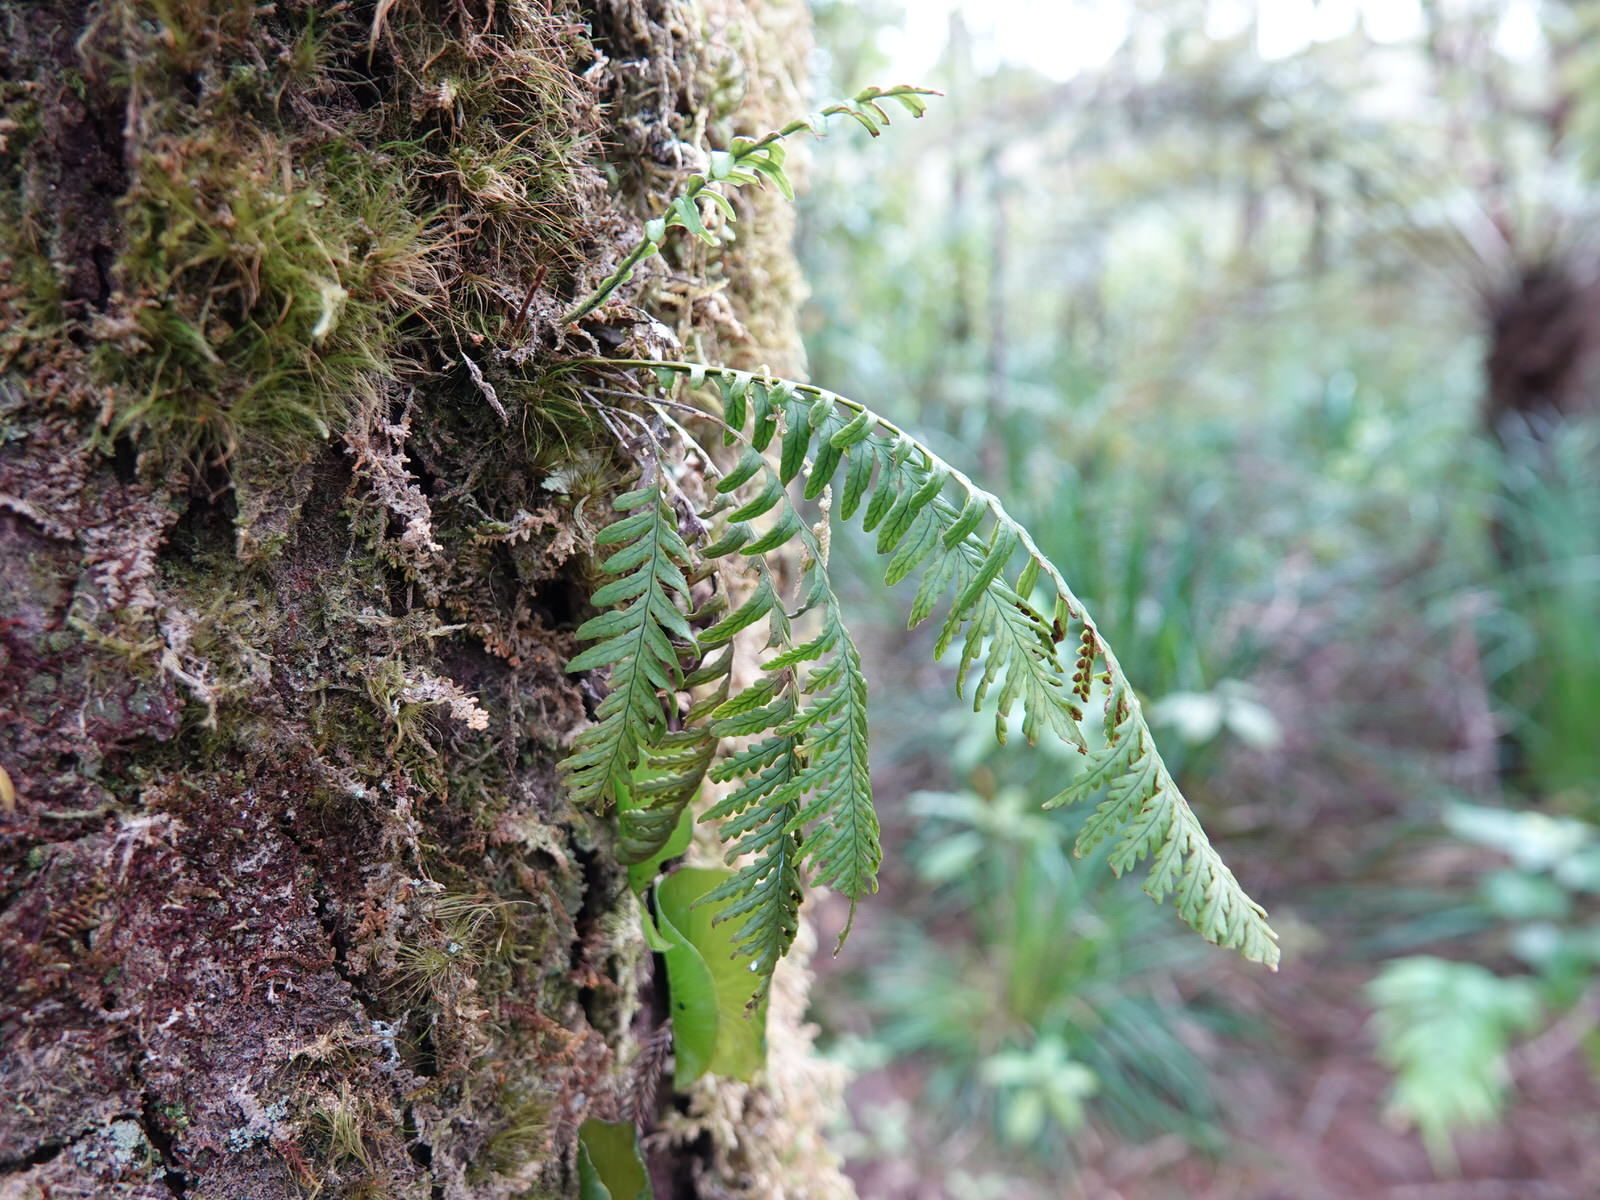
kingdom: Plantae
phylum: Tracheophyta
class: Polypodiopsida
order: Polypodiales
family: Polypodiaceae
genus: Notogrammitis
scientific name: Notogrammitis heterophylla
